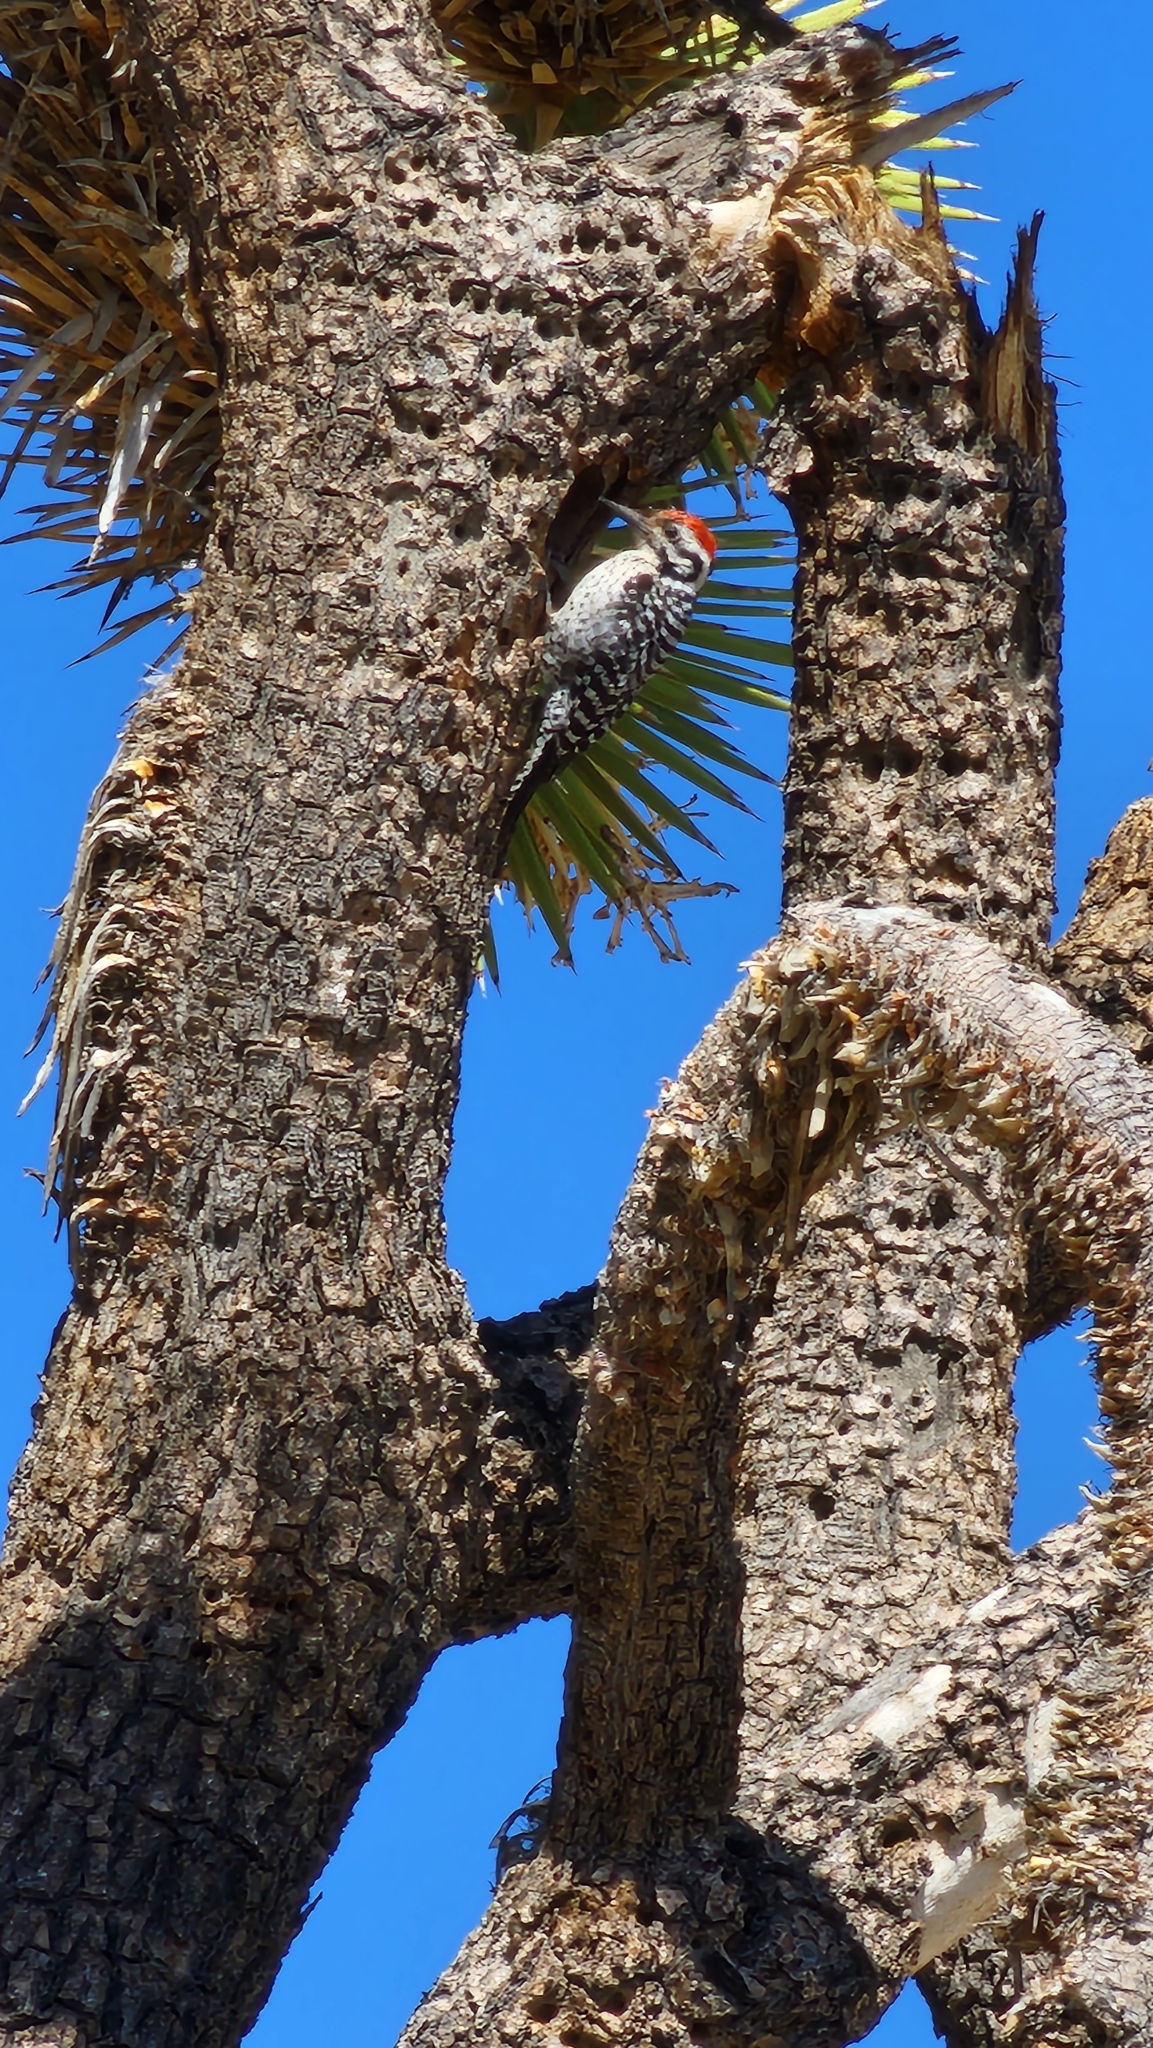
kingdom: Animalia
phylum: Chordata
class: Aves
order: Piciformes
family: Picidae
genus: Dryobates
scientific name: Dryobates scalaris
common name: Ladder-backed woodpecker
